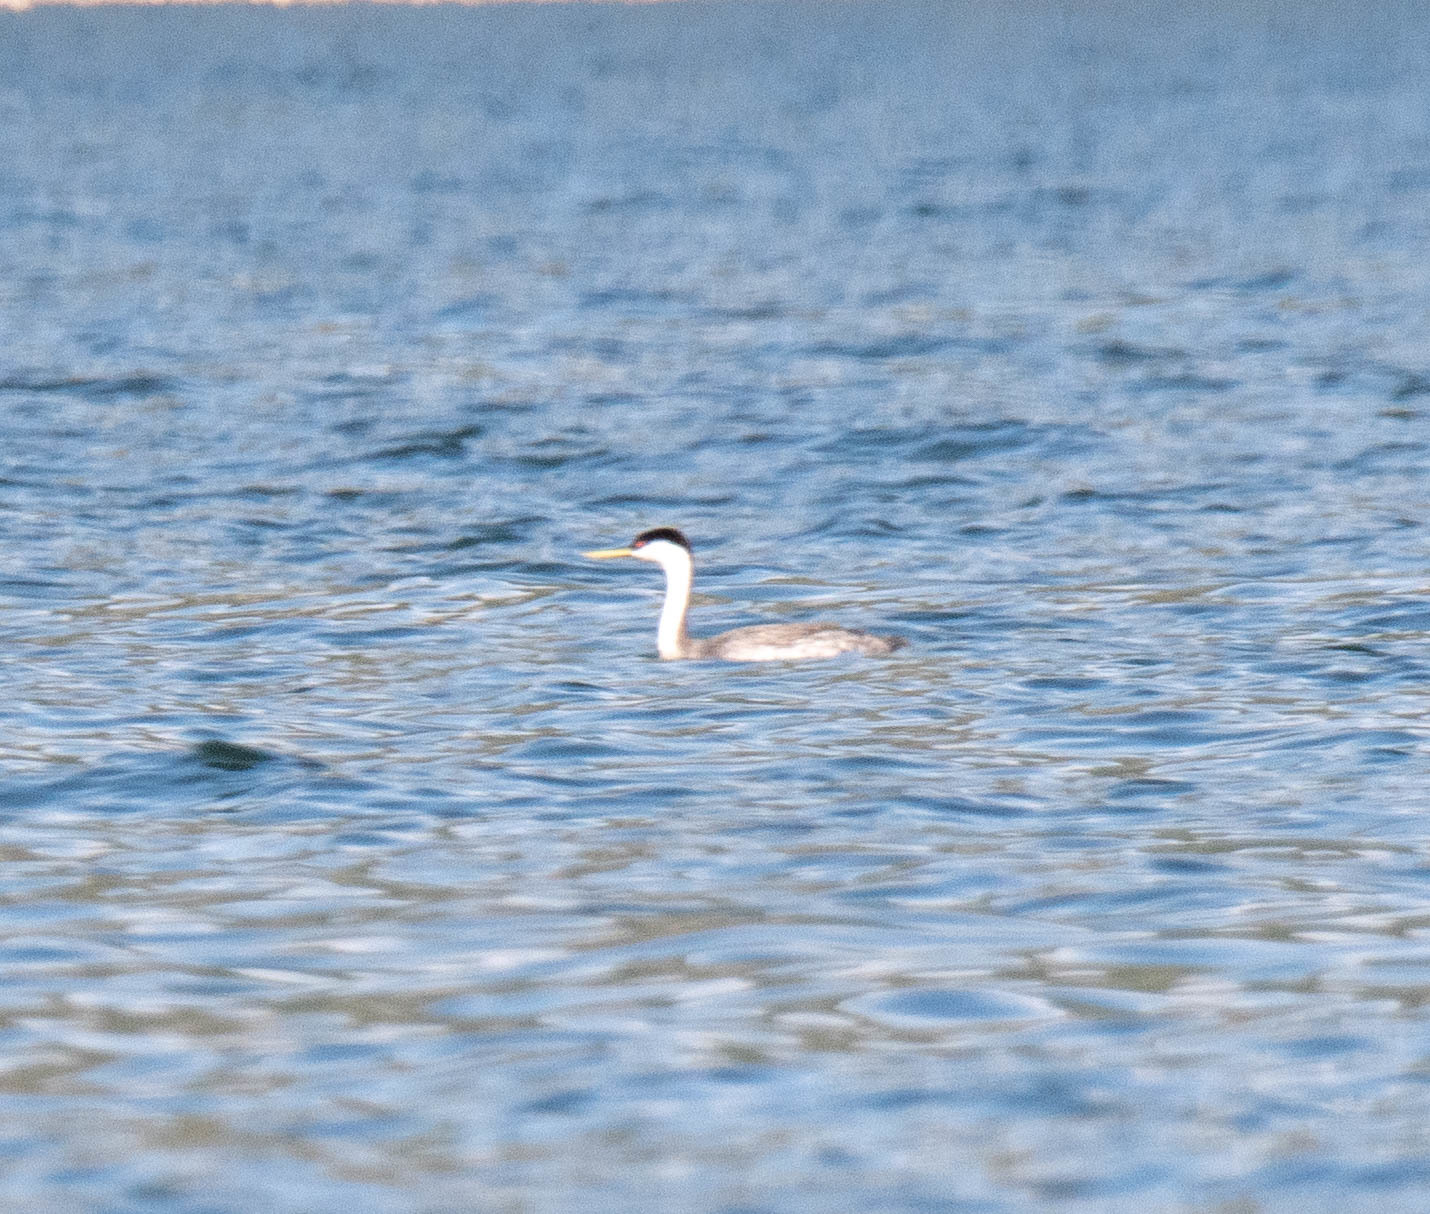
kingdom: Animalia
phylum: Chordata
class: Aves
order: Podicipediformes
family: Podicipedidae
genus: Aechmophorus
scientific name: Aechmophorus occidentalis
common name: Western grebe
